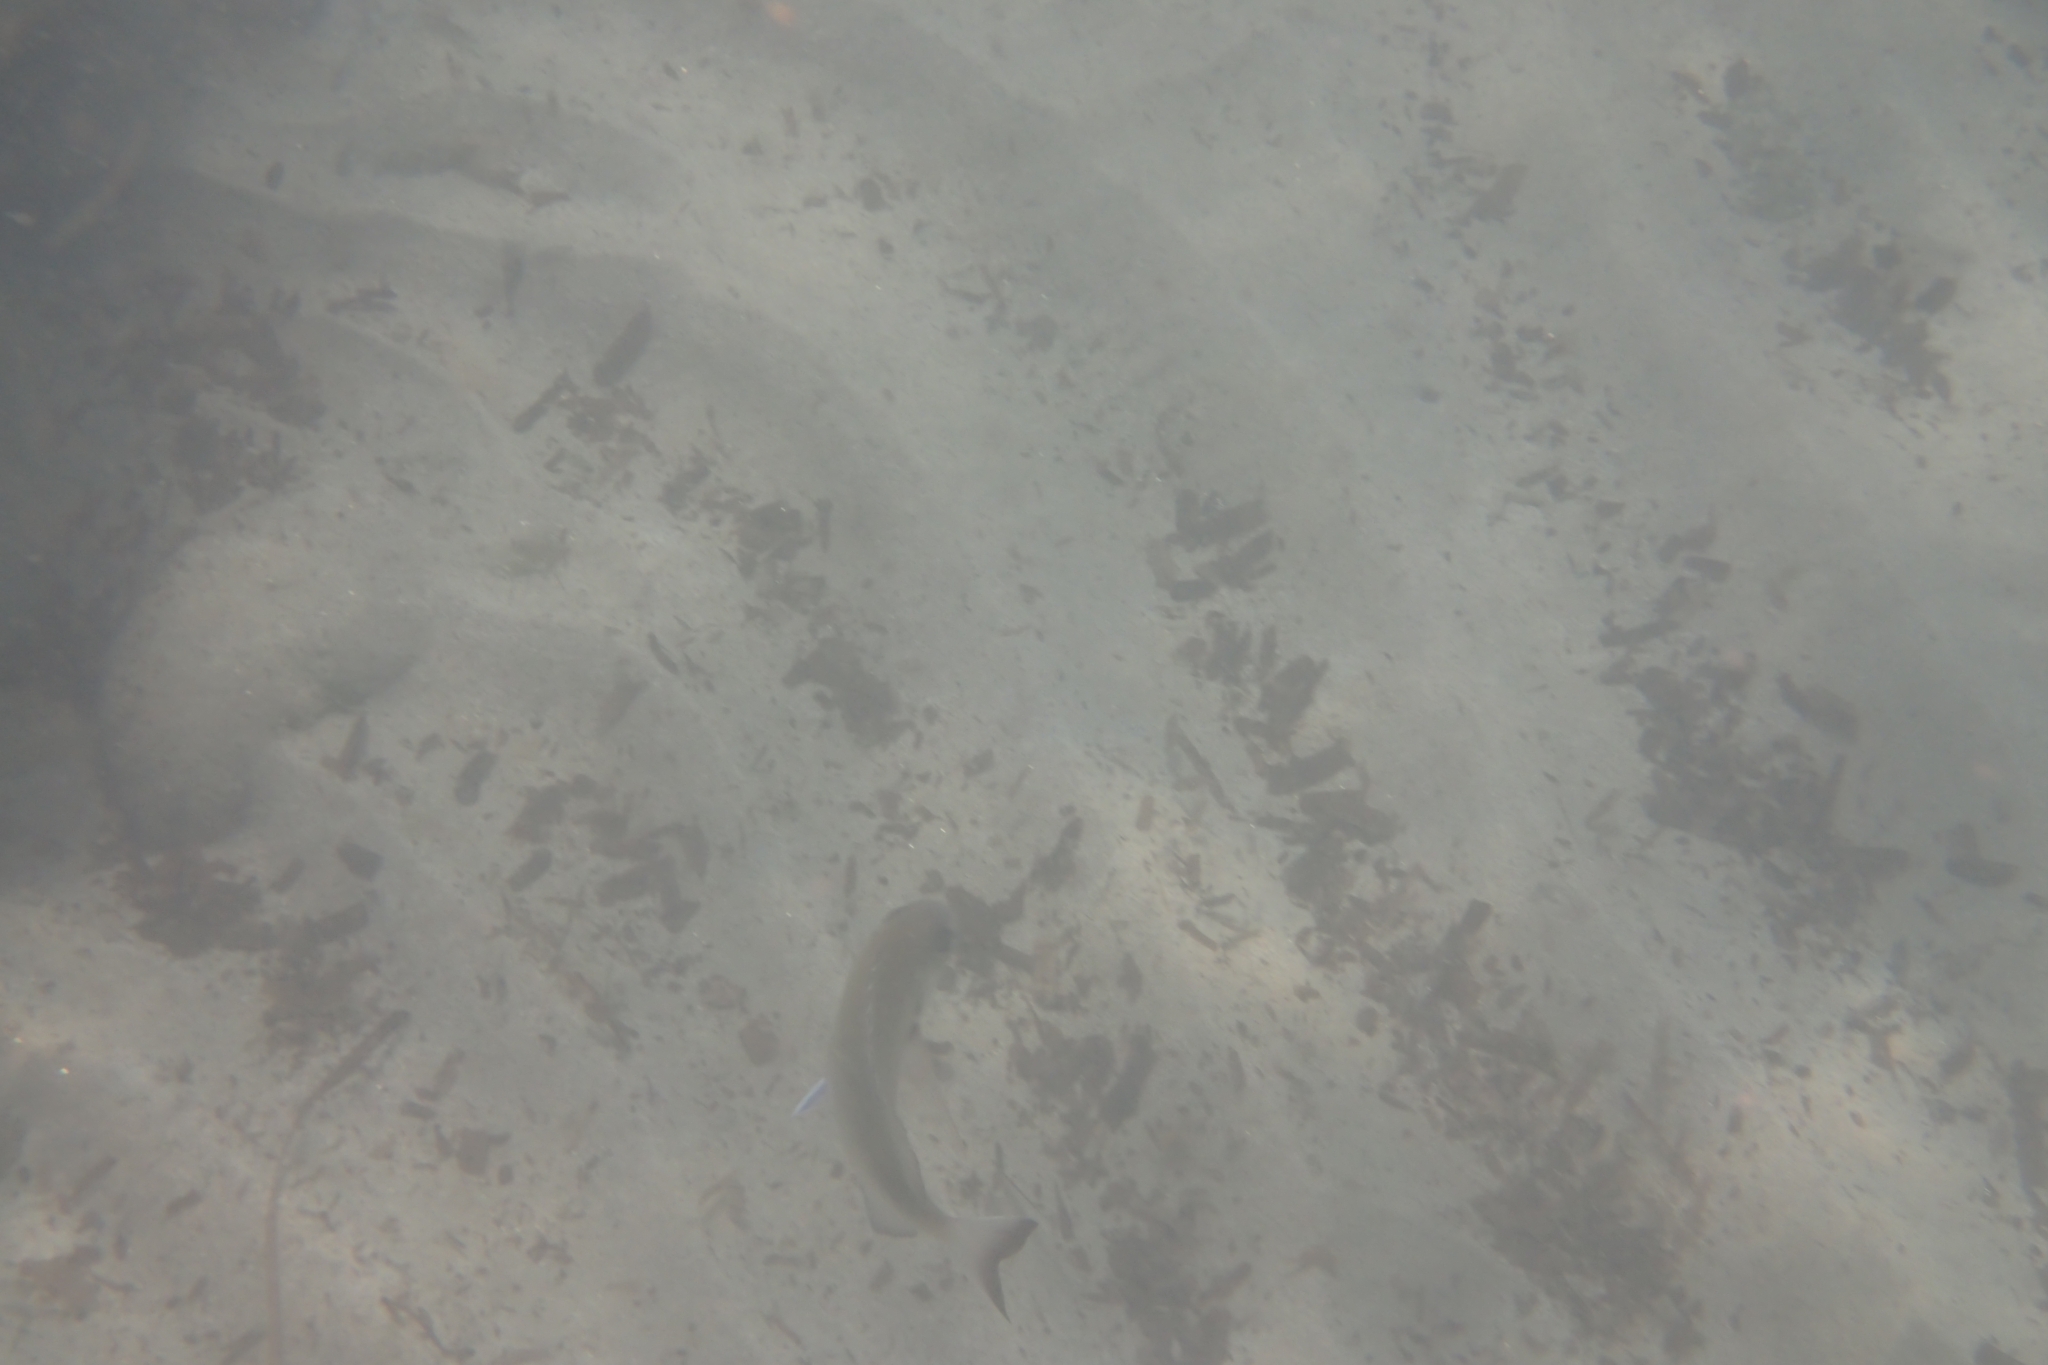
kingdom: Animalia
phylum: Chordata
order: Perciformes
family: Sparidae
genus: Diplodus
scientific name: Diplodus sargus
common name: White seabream
